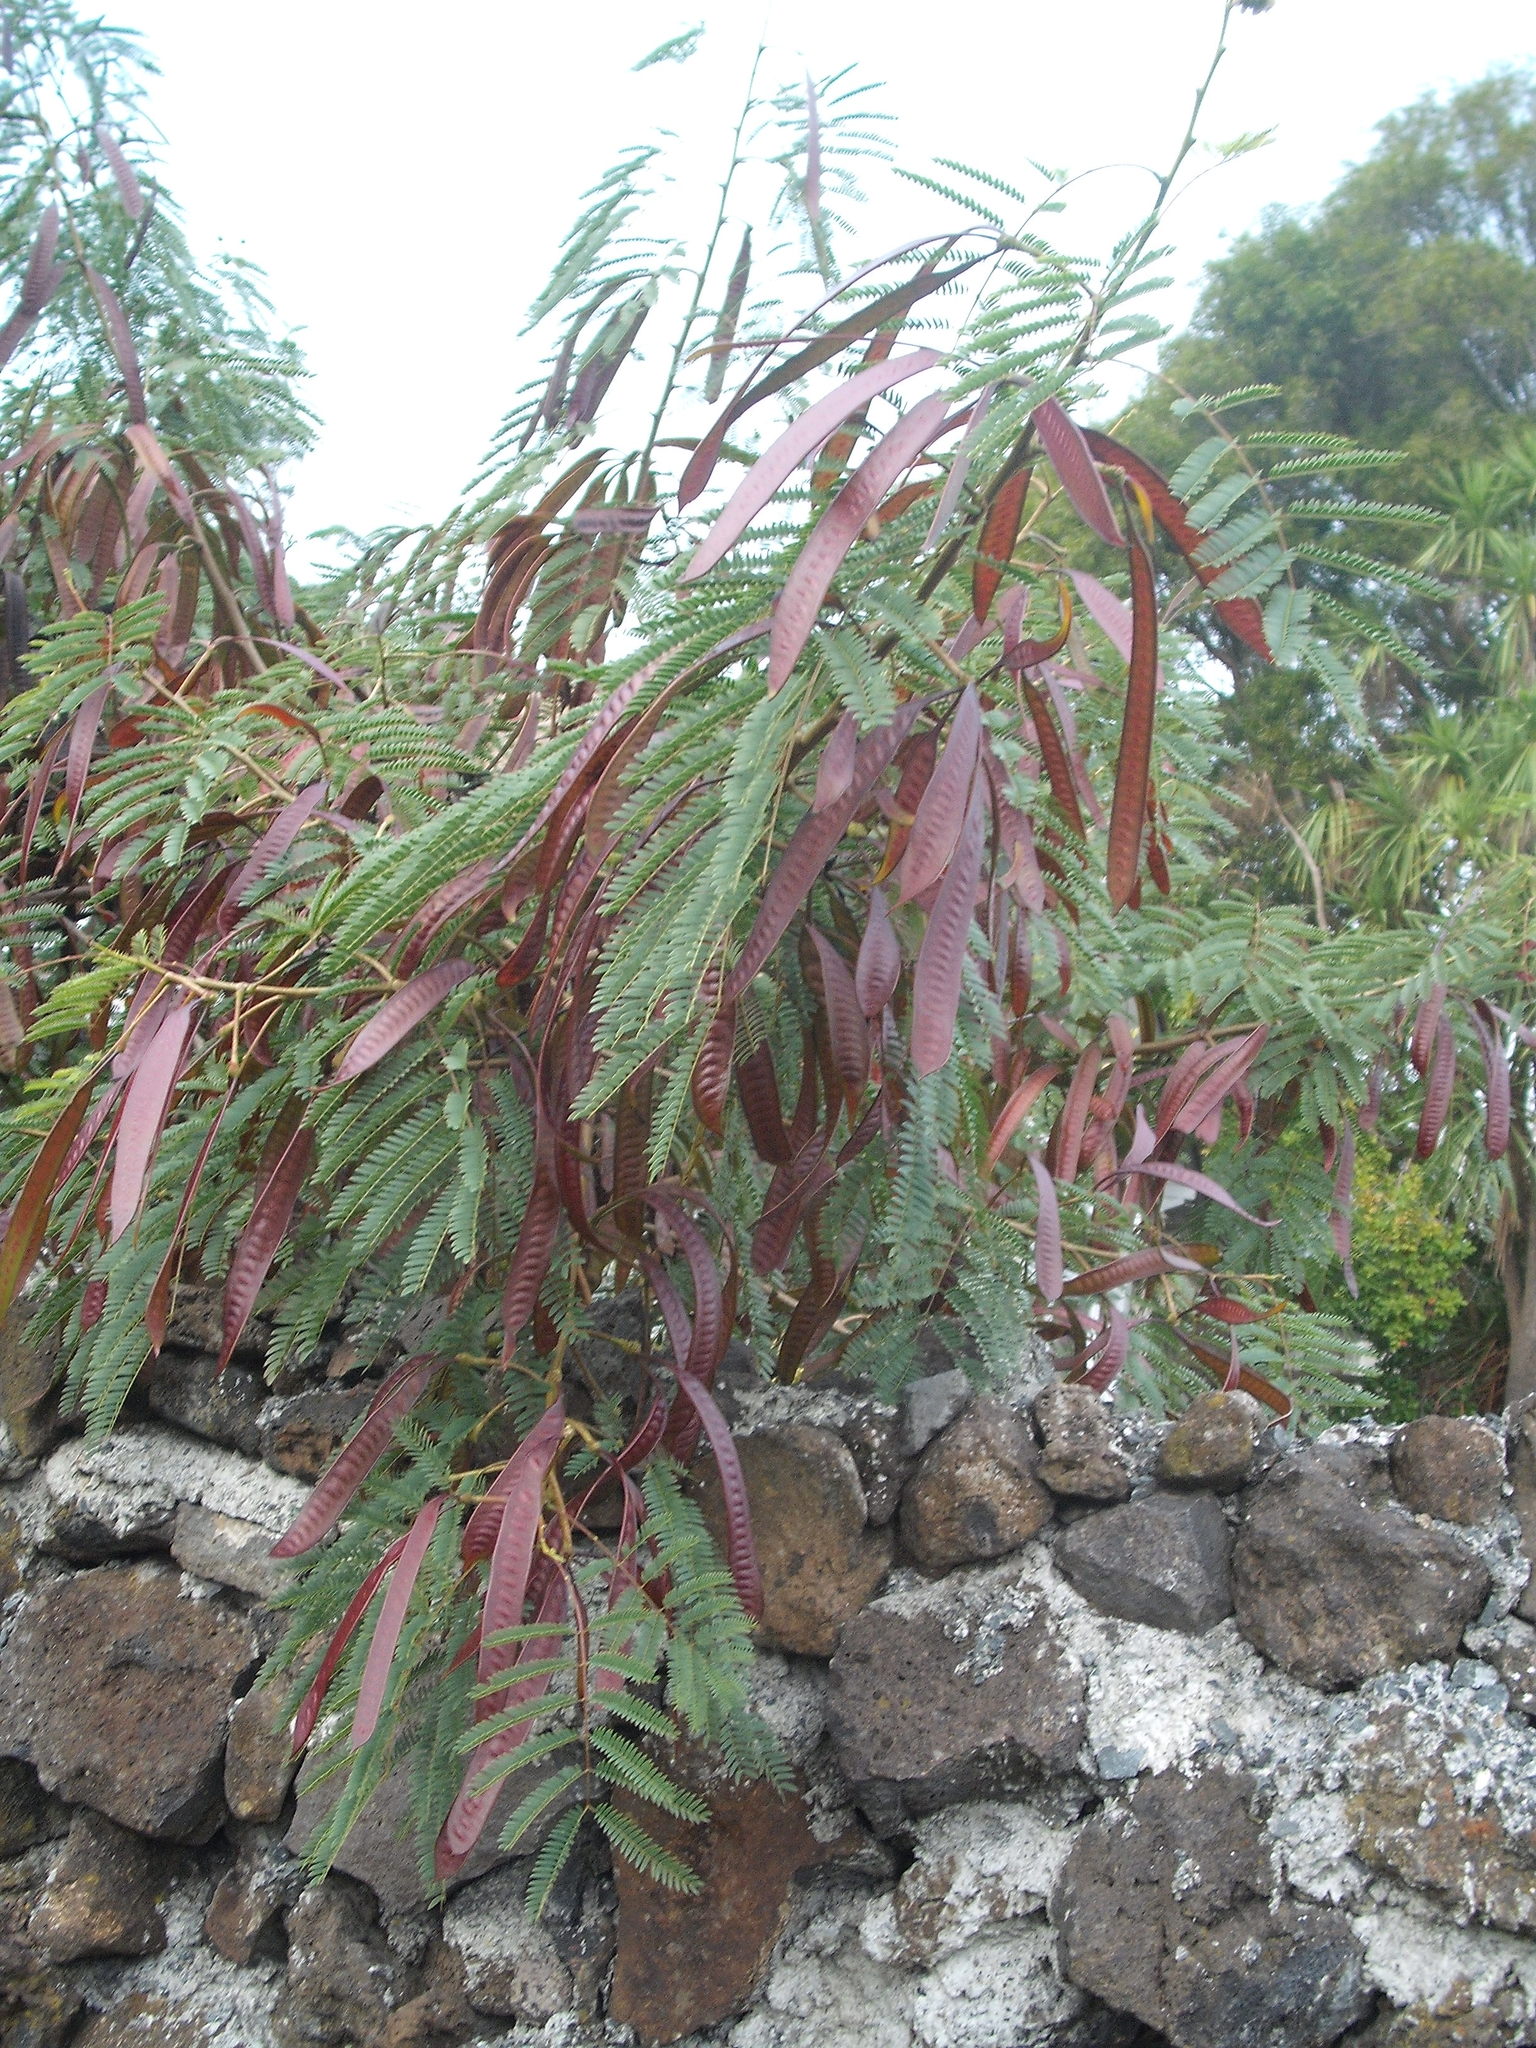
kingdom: Plantae
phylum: Tracheophyta
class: Magnoliopsida
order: Fabales
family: Fabaceae
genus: Leucaena
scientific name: Leucaena leucocephala
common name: White leadtree
